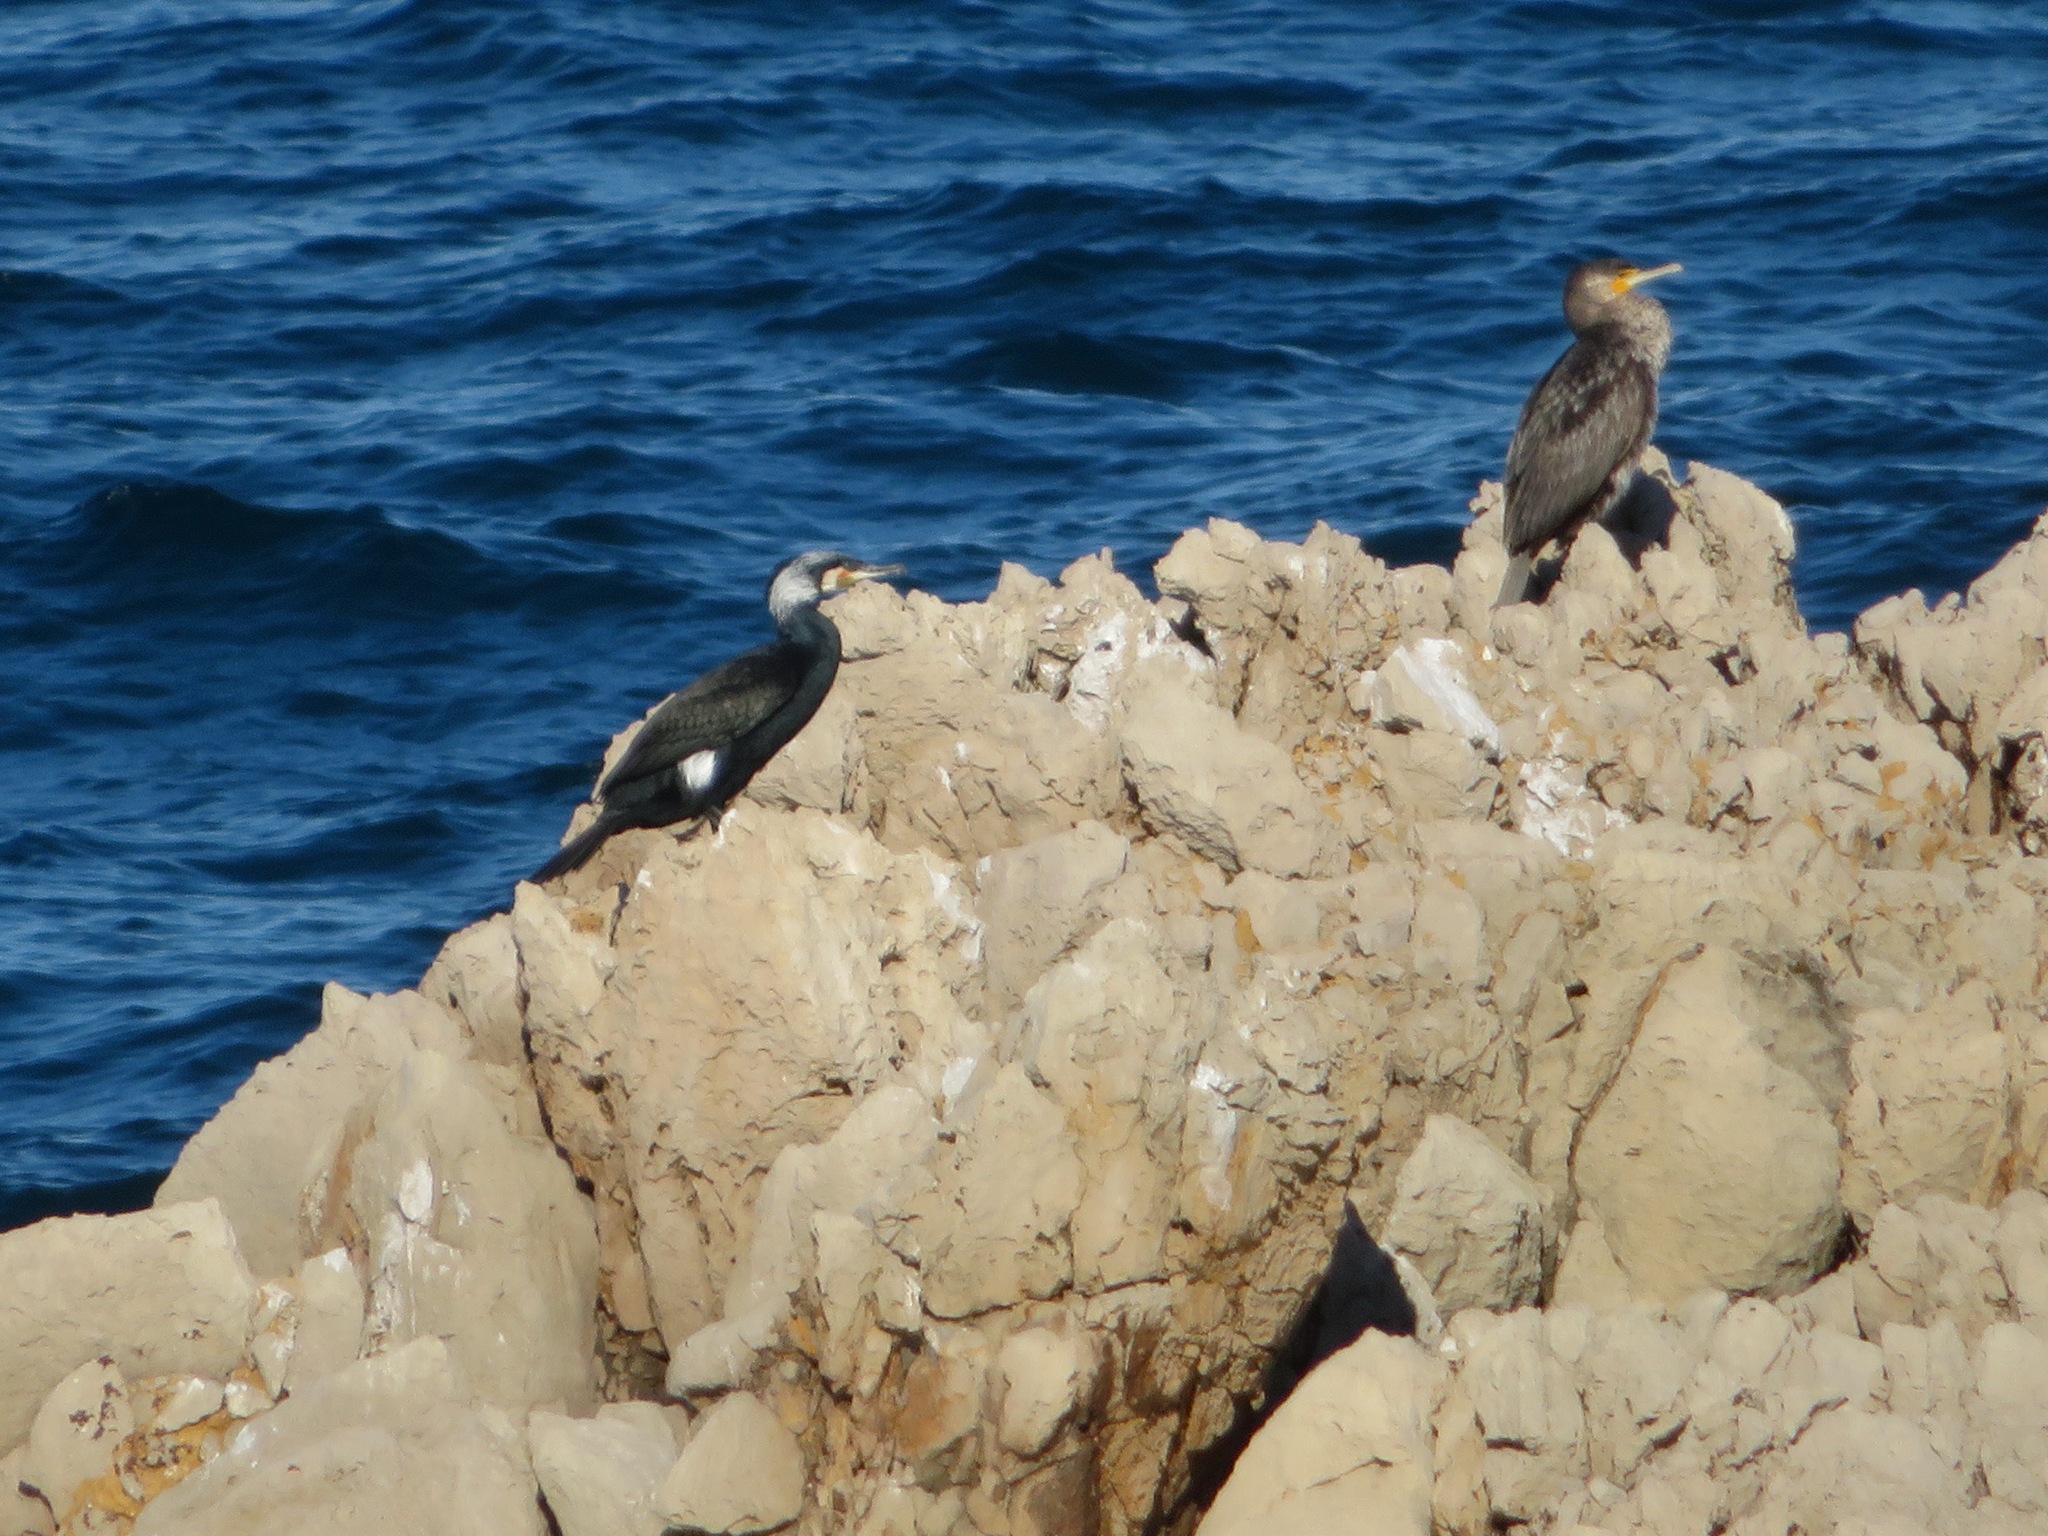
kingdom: Animalia
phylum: Chordata
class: Aves
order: Suliformes
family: Phalacrocoracidae
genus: Phalacrocorax
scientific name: Phalacrocorax carbo
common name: Great cormorant
